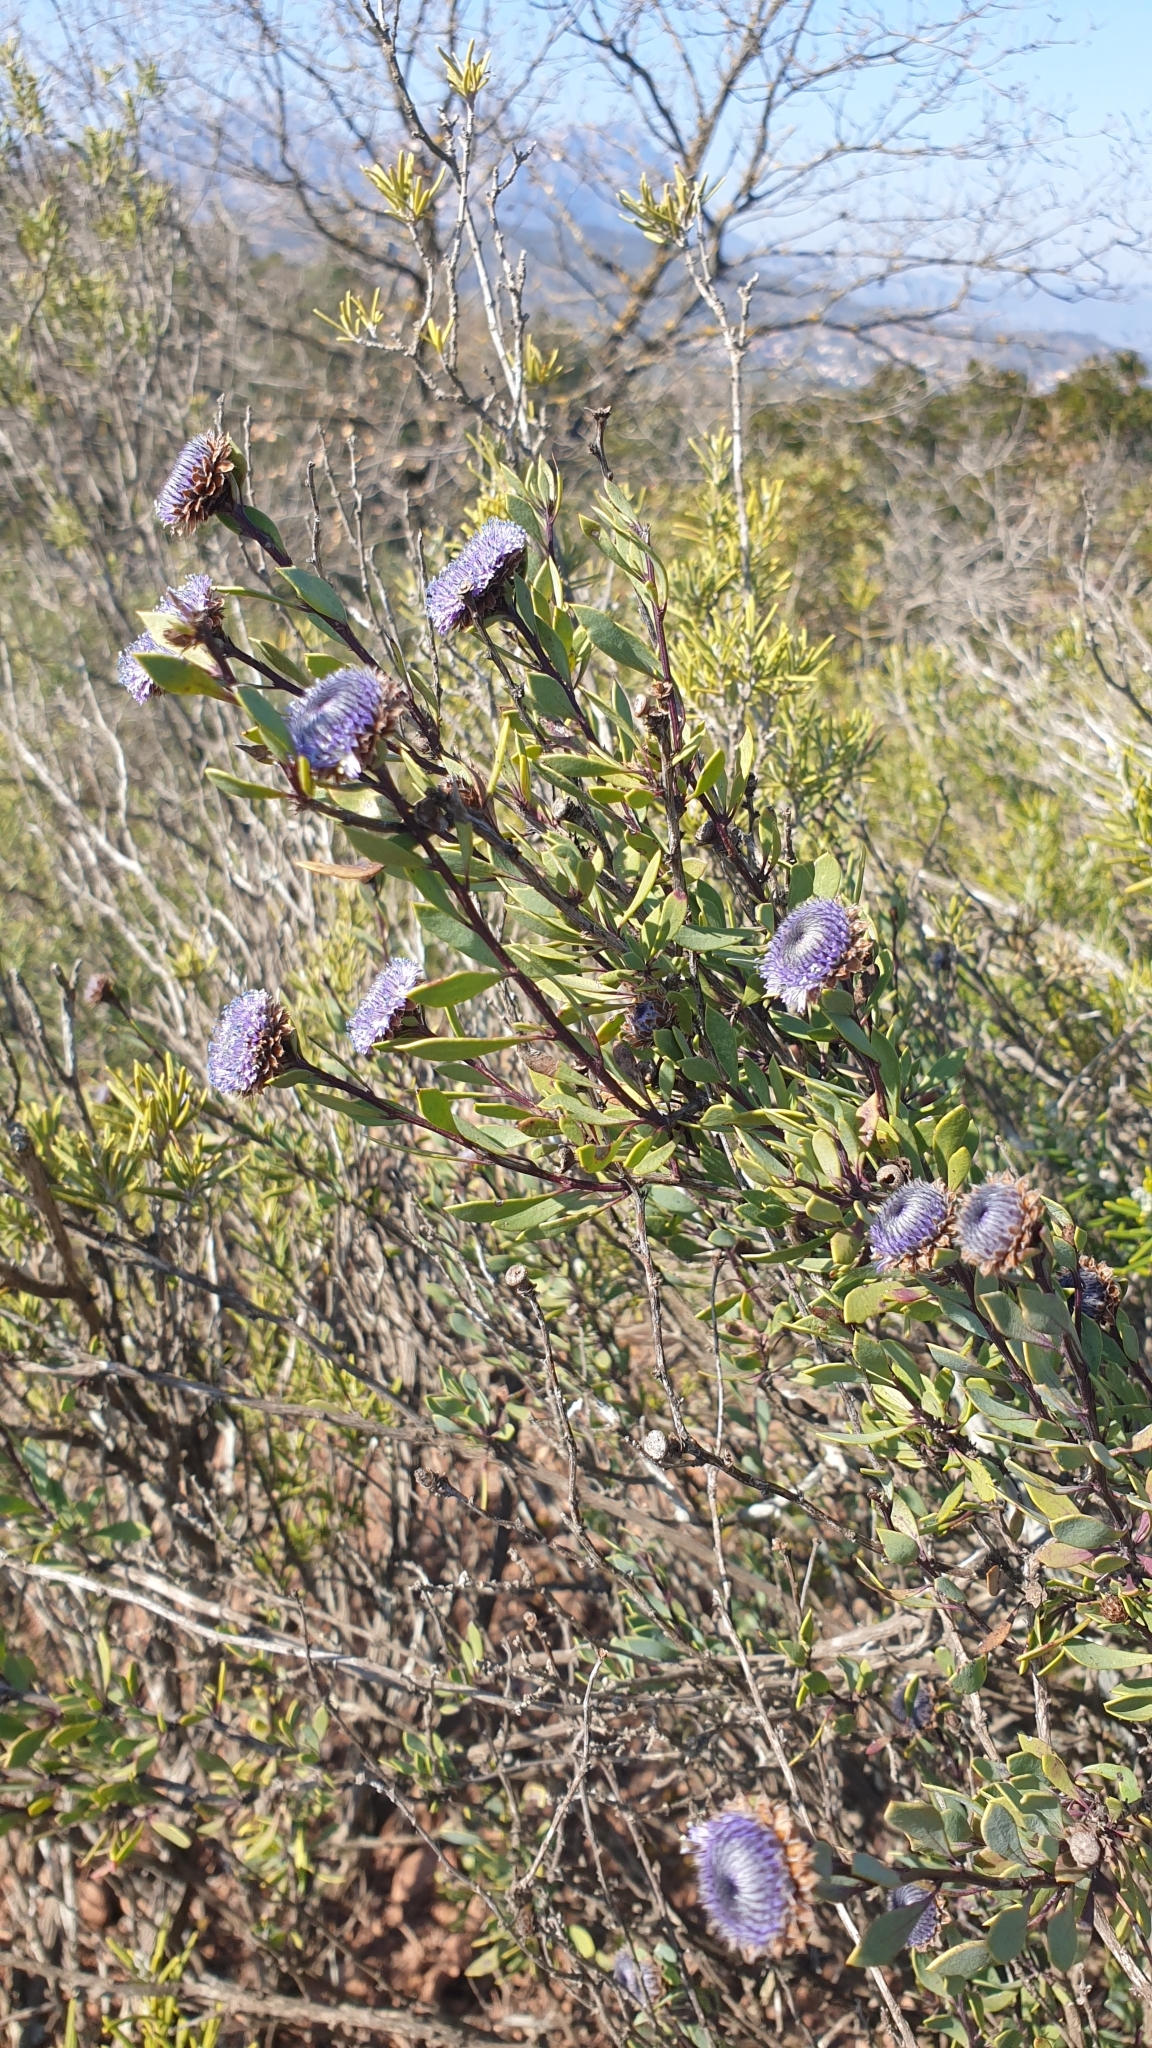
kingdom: Plantae
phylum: Tracheophyta
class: Magnoliopsida
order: Lamiales
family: Plantaginaceae
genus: Globularia
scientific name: Globularia alypum
